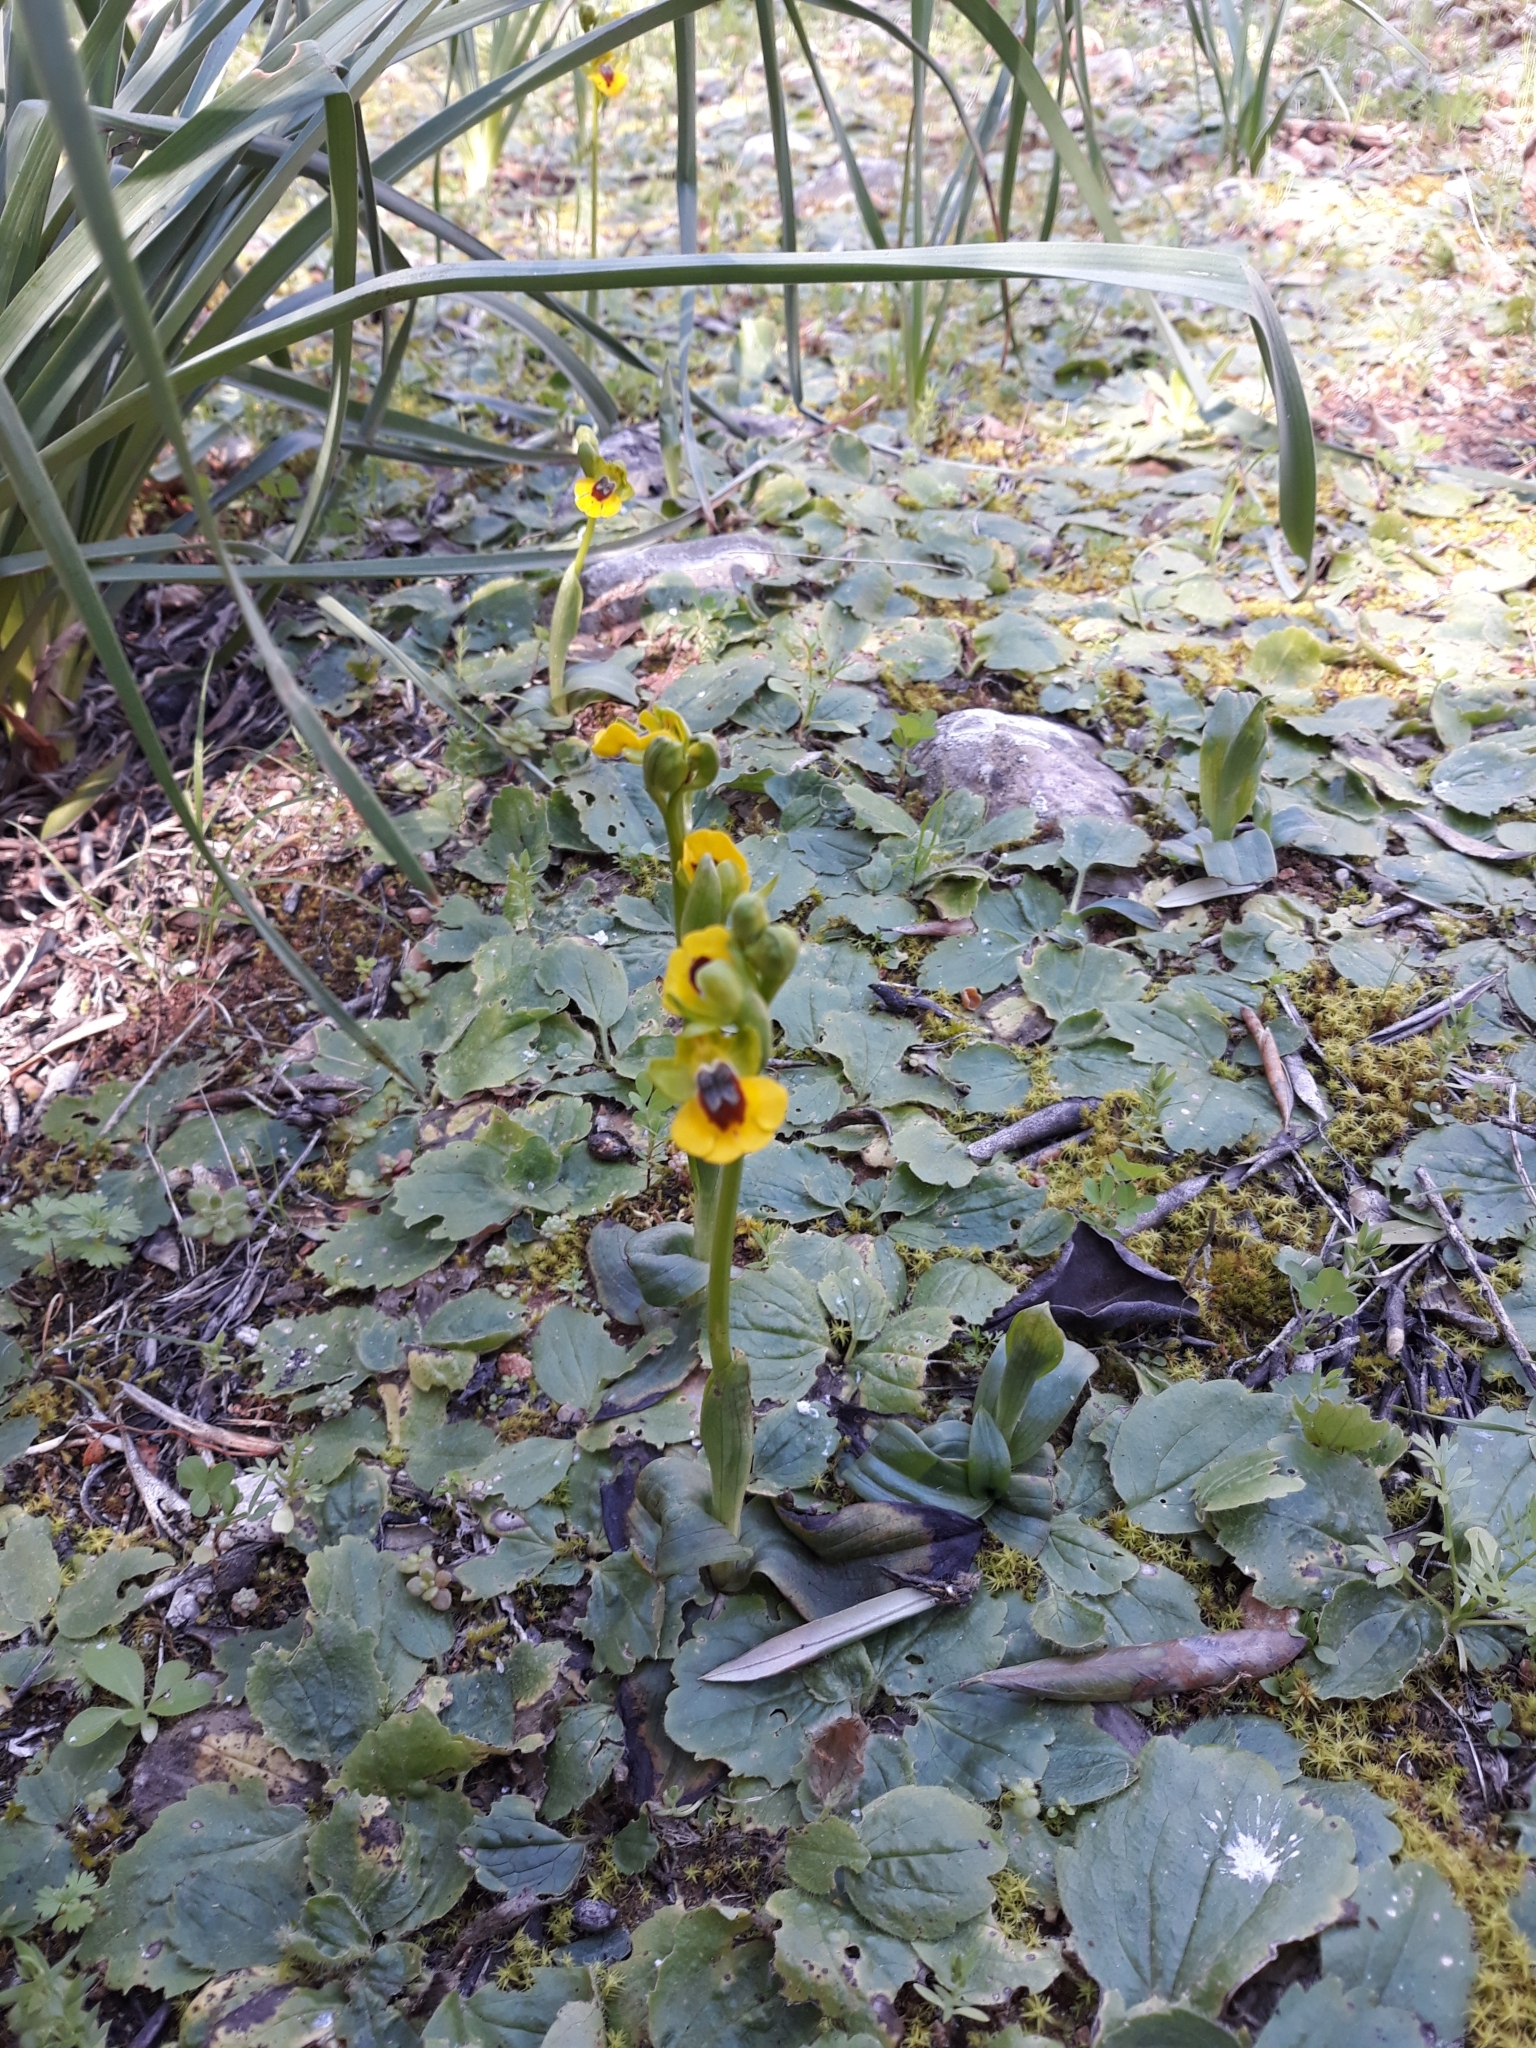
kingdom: Plantae
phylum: Tracheophyta
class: Liliopsida
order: Asparagales
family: Orchidaceae
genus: Ophrys
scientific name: Ophrys lutea
